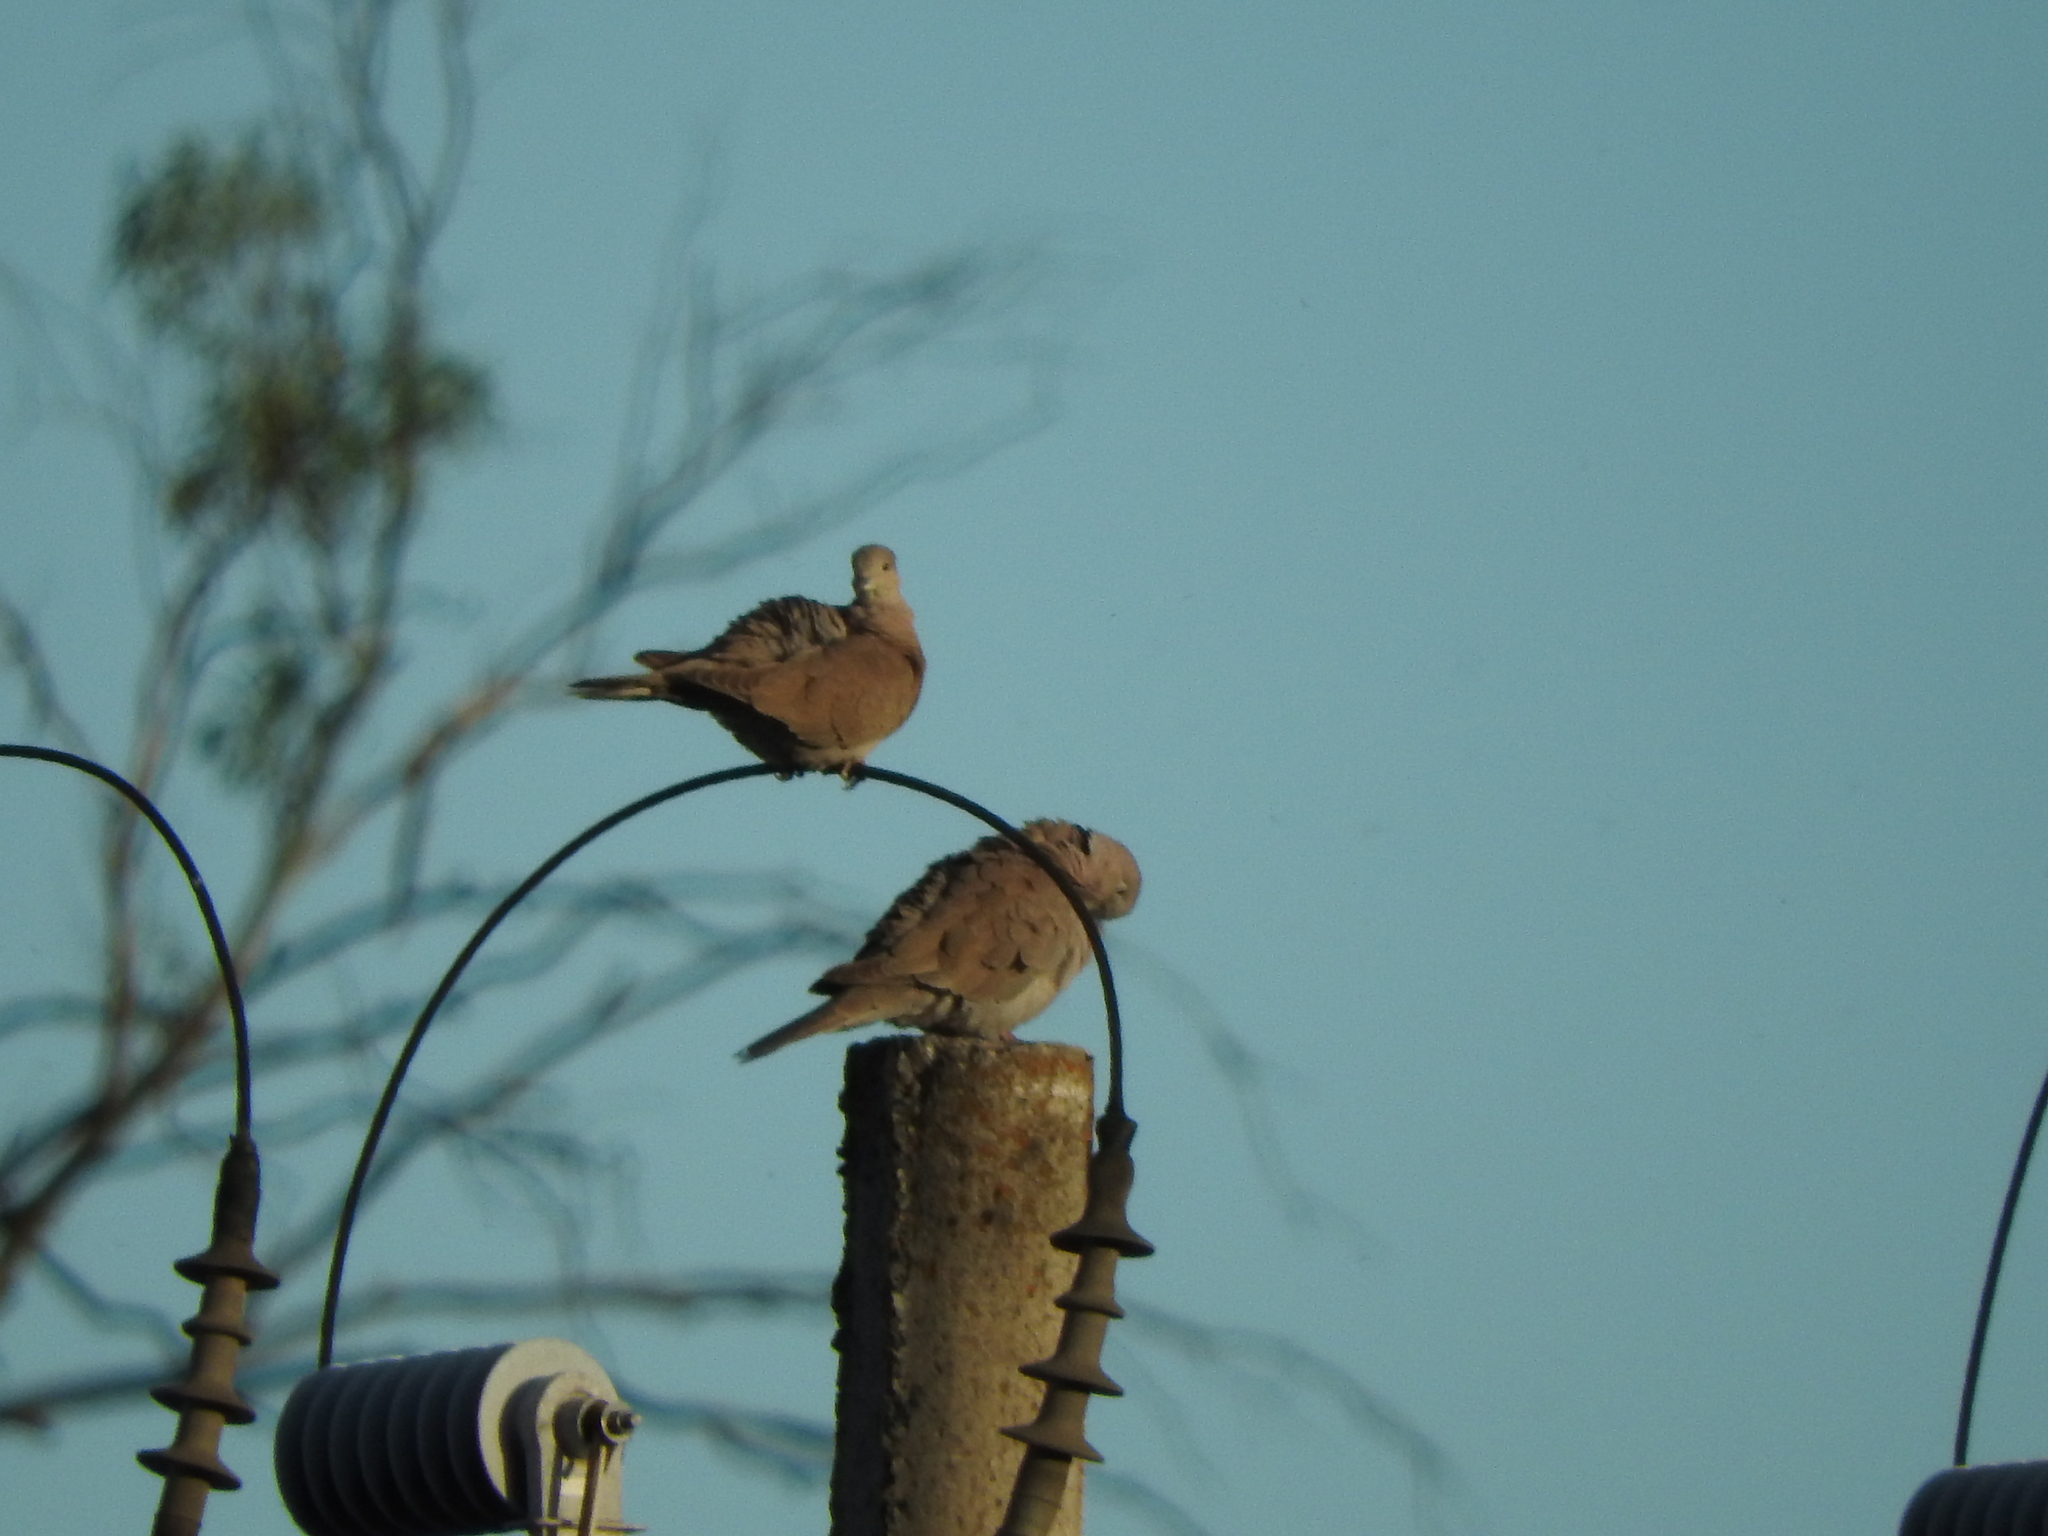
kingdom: Animalia
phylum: Chordata
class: Aves
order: Columbiformes
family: Columbidae
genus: Streptopelia
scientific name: Streptopelia decaocto
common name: Eurasian collared dove
